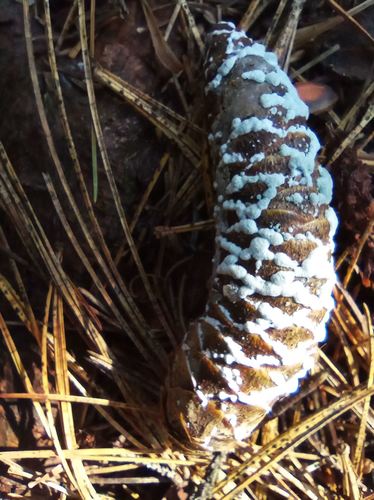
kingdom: Fungi
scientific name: Fungi
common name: Fungi
